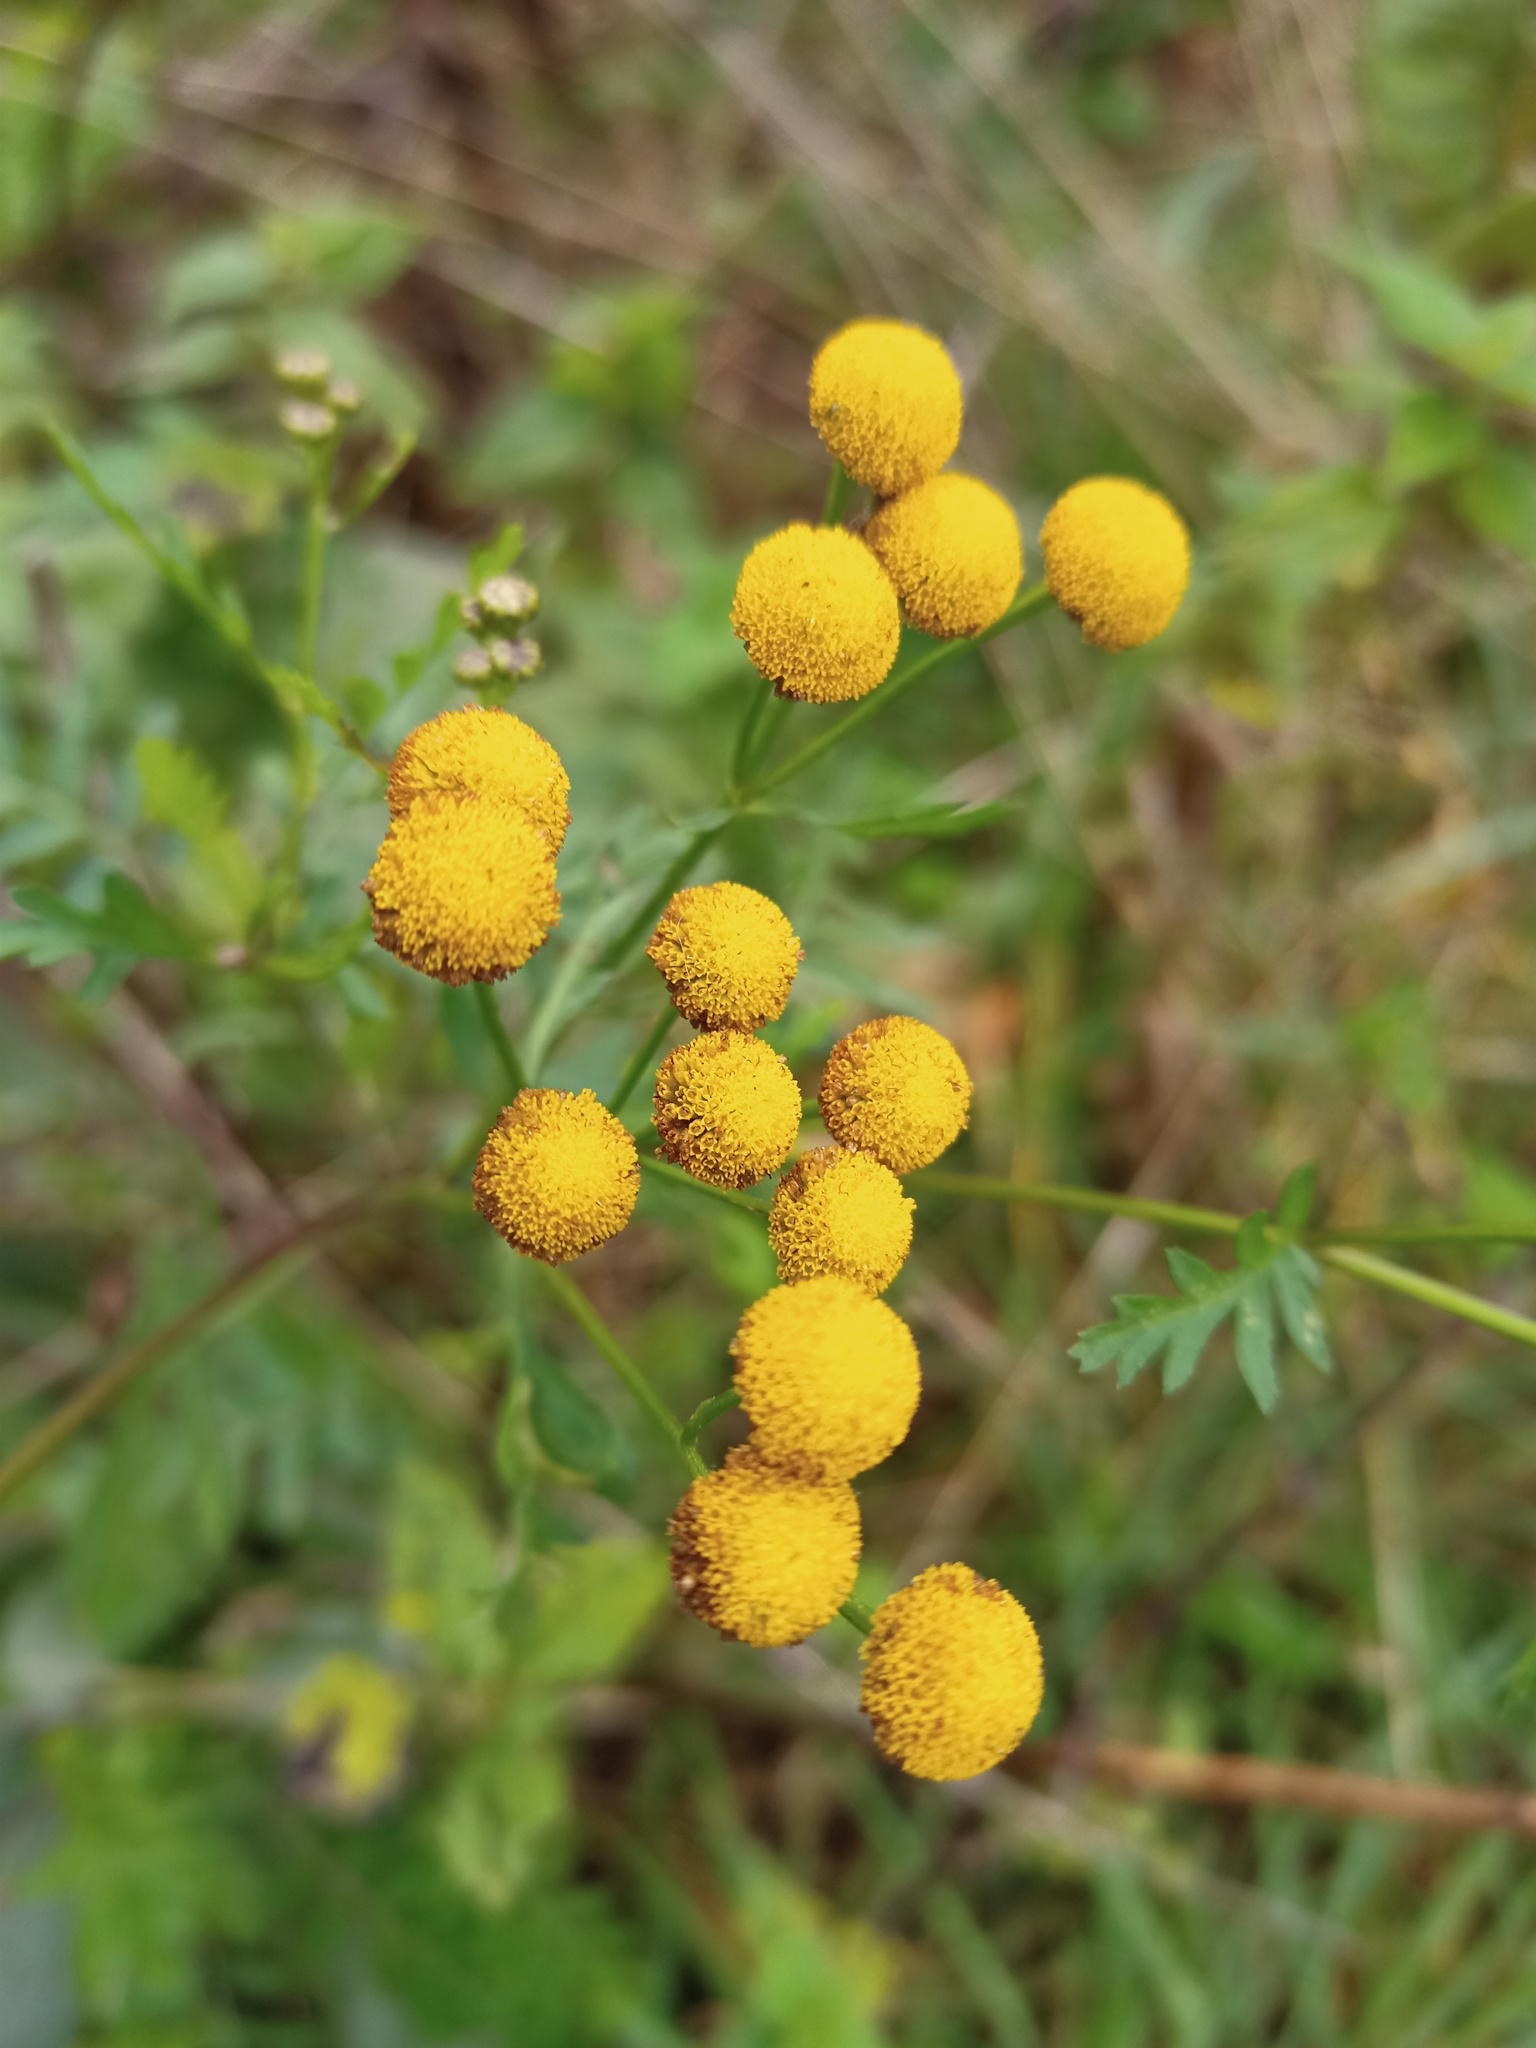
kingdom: Plantae
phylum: Tracheophyta
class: Magnoliopsida
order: Asterales
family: Asteraceae
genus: Tanacetum
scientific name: Tanacetum vulgare
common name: Common tansy
